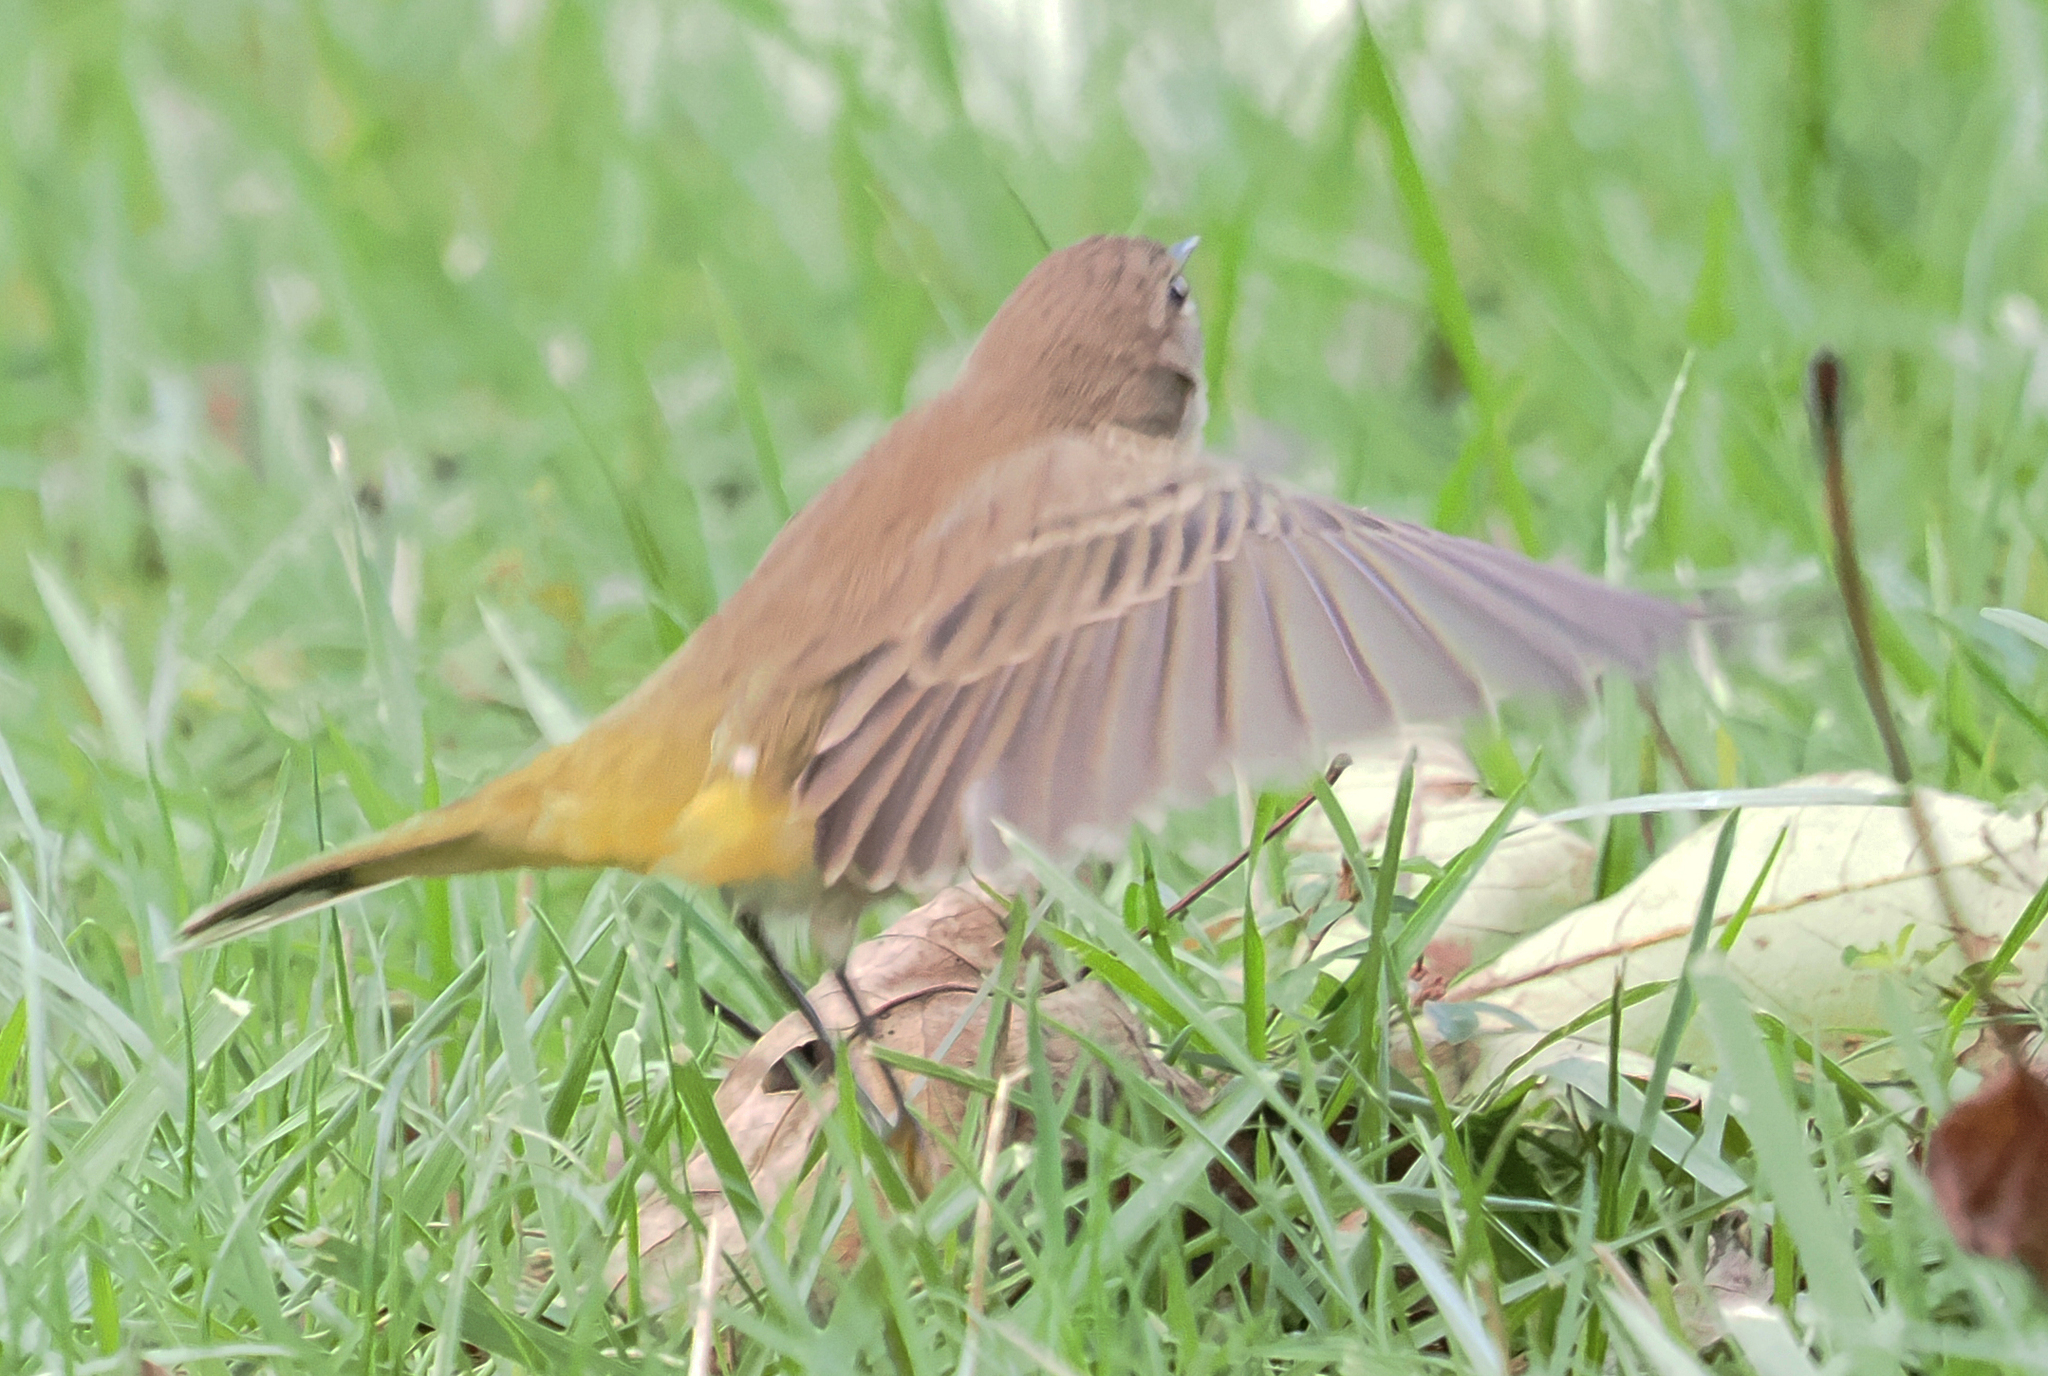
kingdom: Animalia
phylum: Chordata
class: Aves
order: Passeriformes
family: Parulidae
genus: Setophaga
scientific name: Setophaga palmarum
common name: Palm warbler
